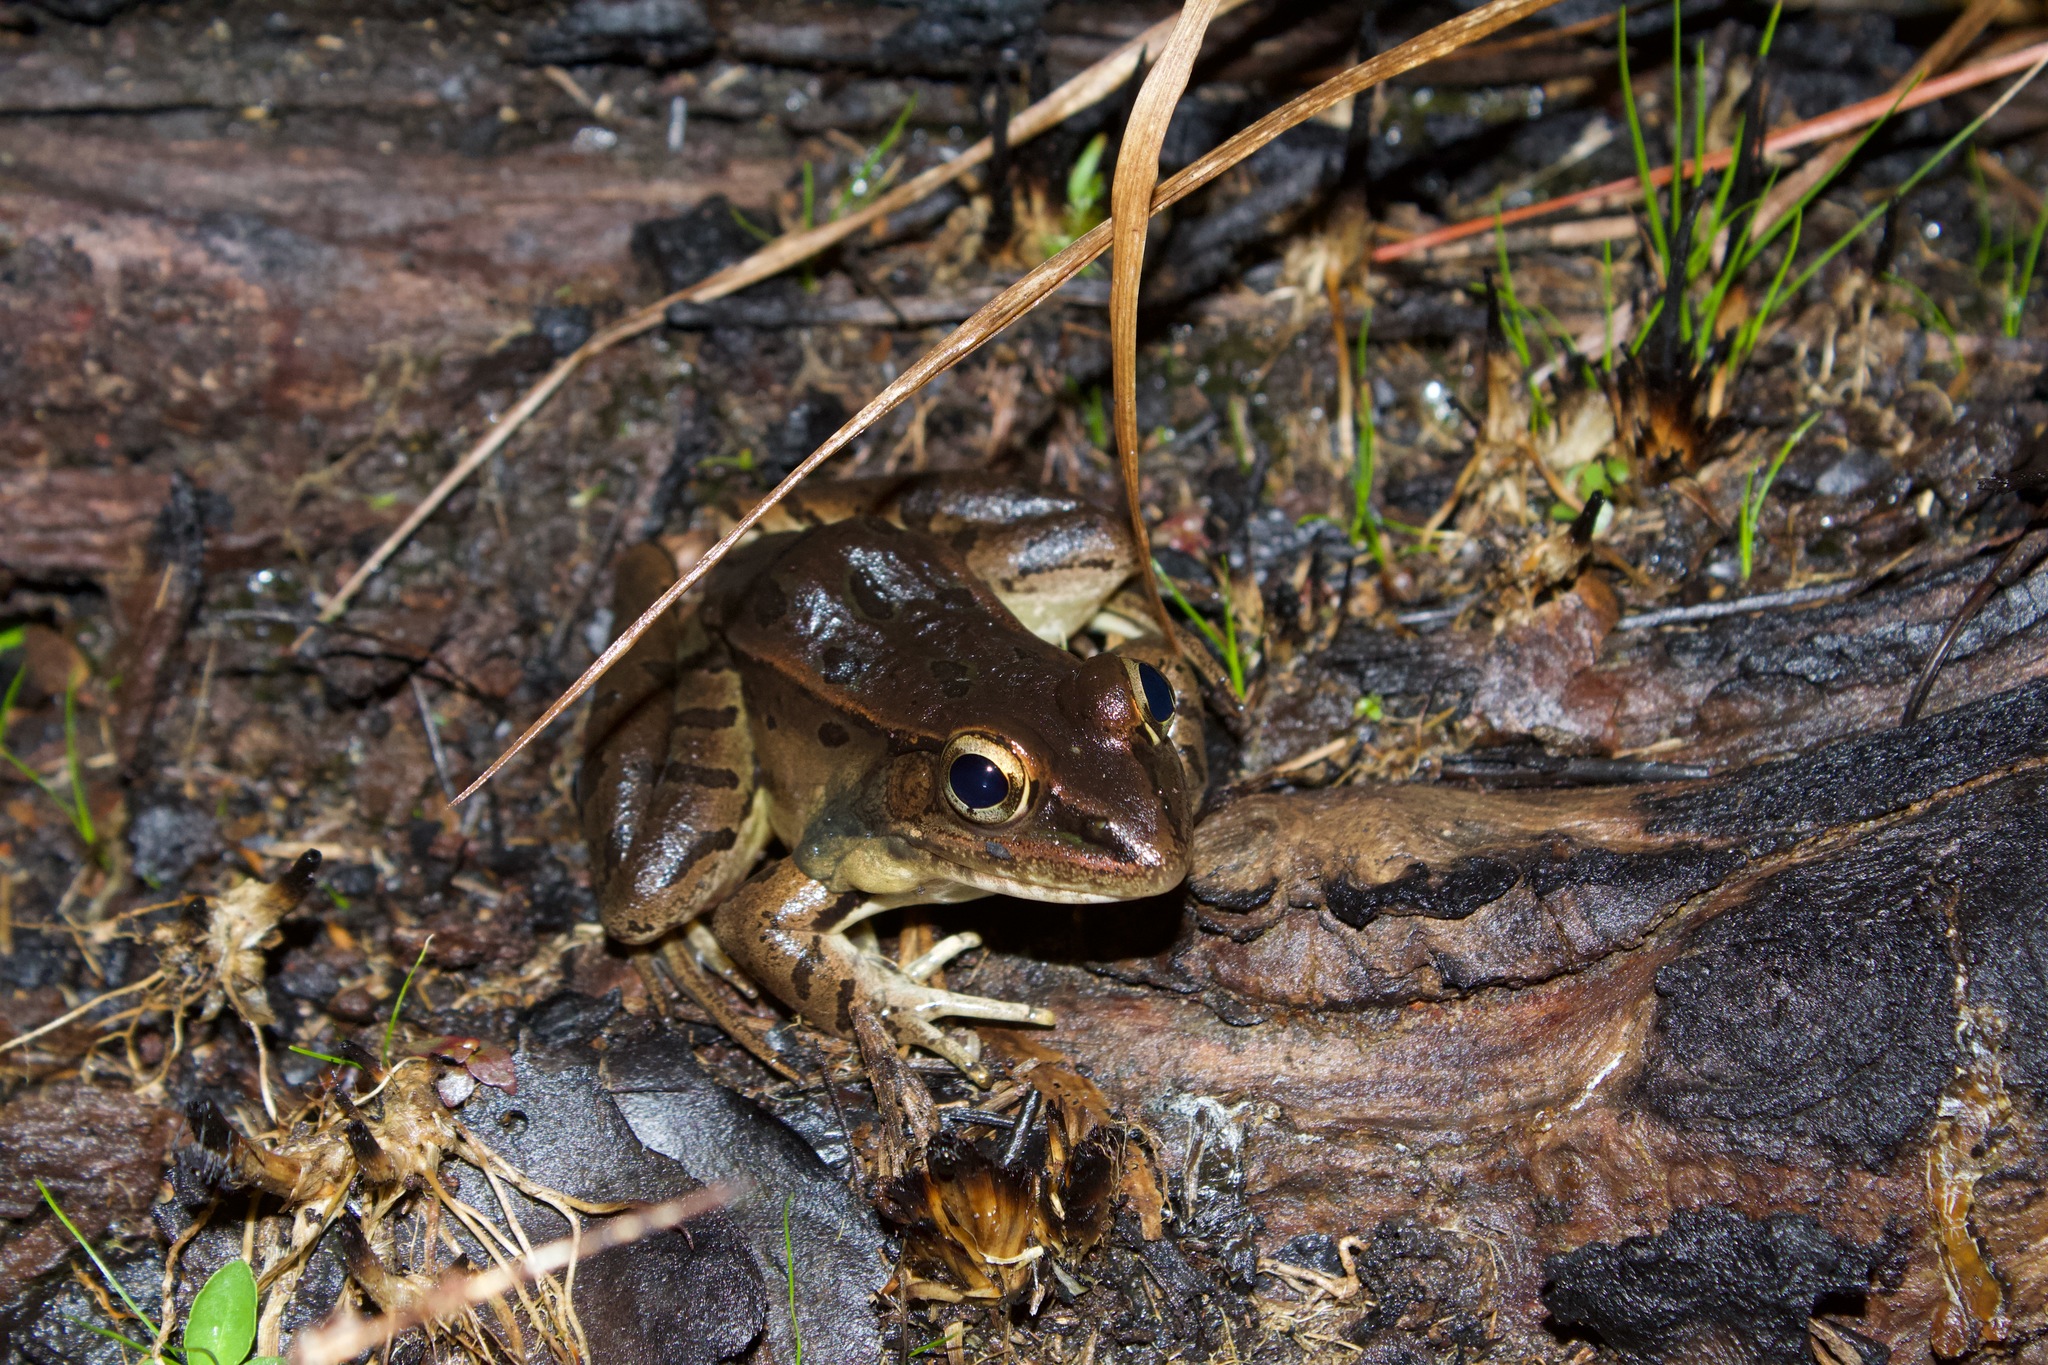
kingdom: Animalia
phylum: Chordata
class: Amphibia
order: Anura
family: Ranidae
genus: Lithobates
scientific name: Lithobates sphenocephalus
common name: Southern leopard frog
